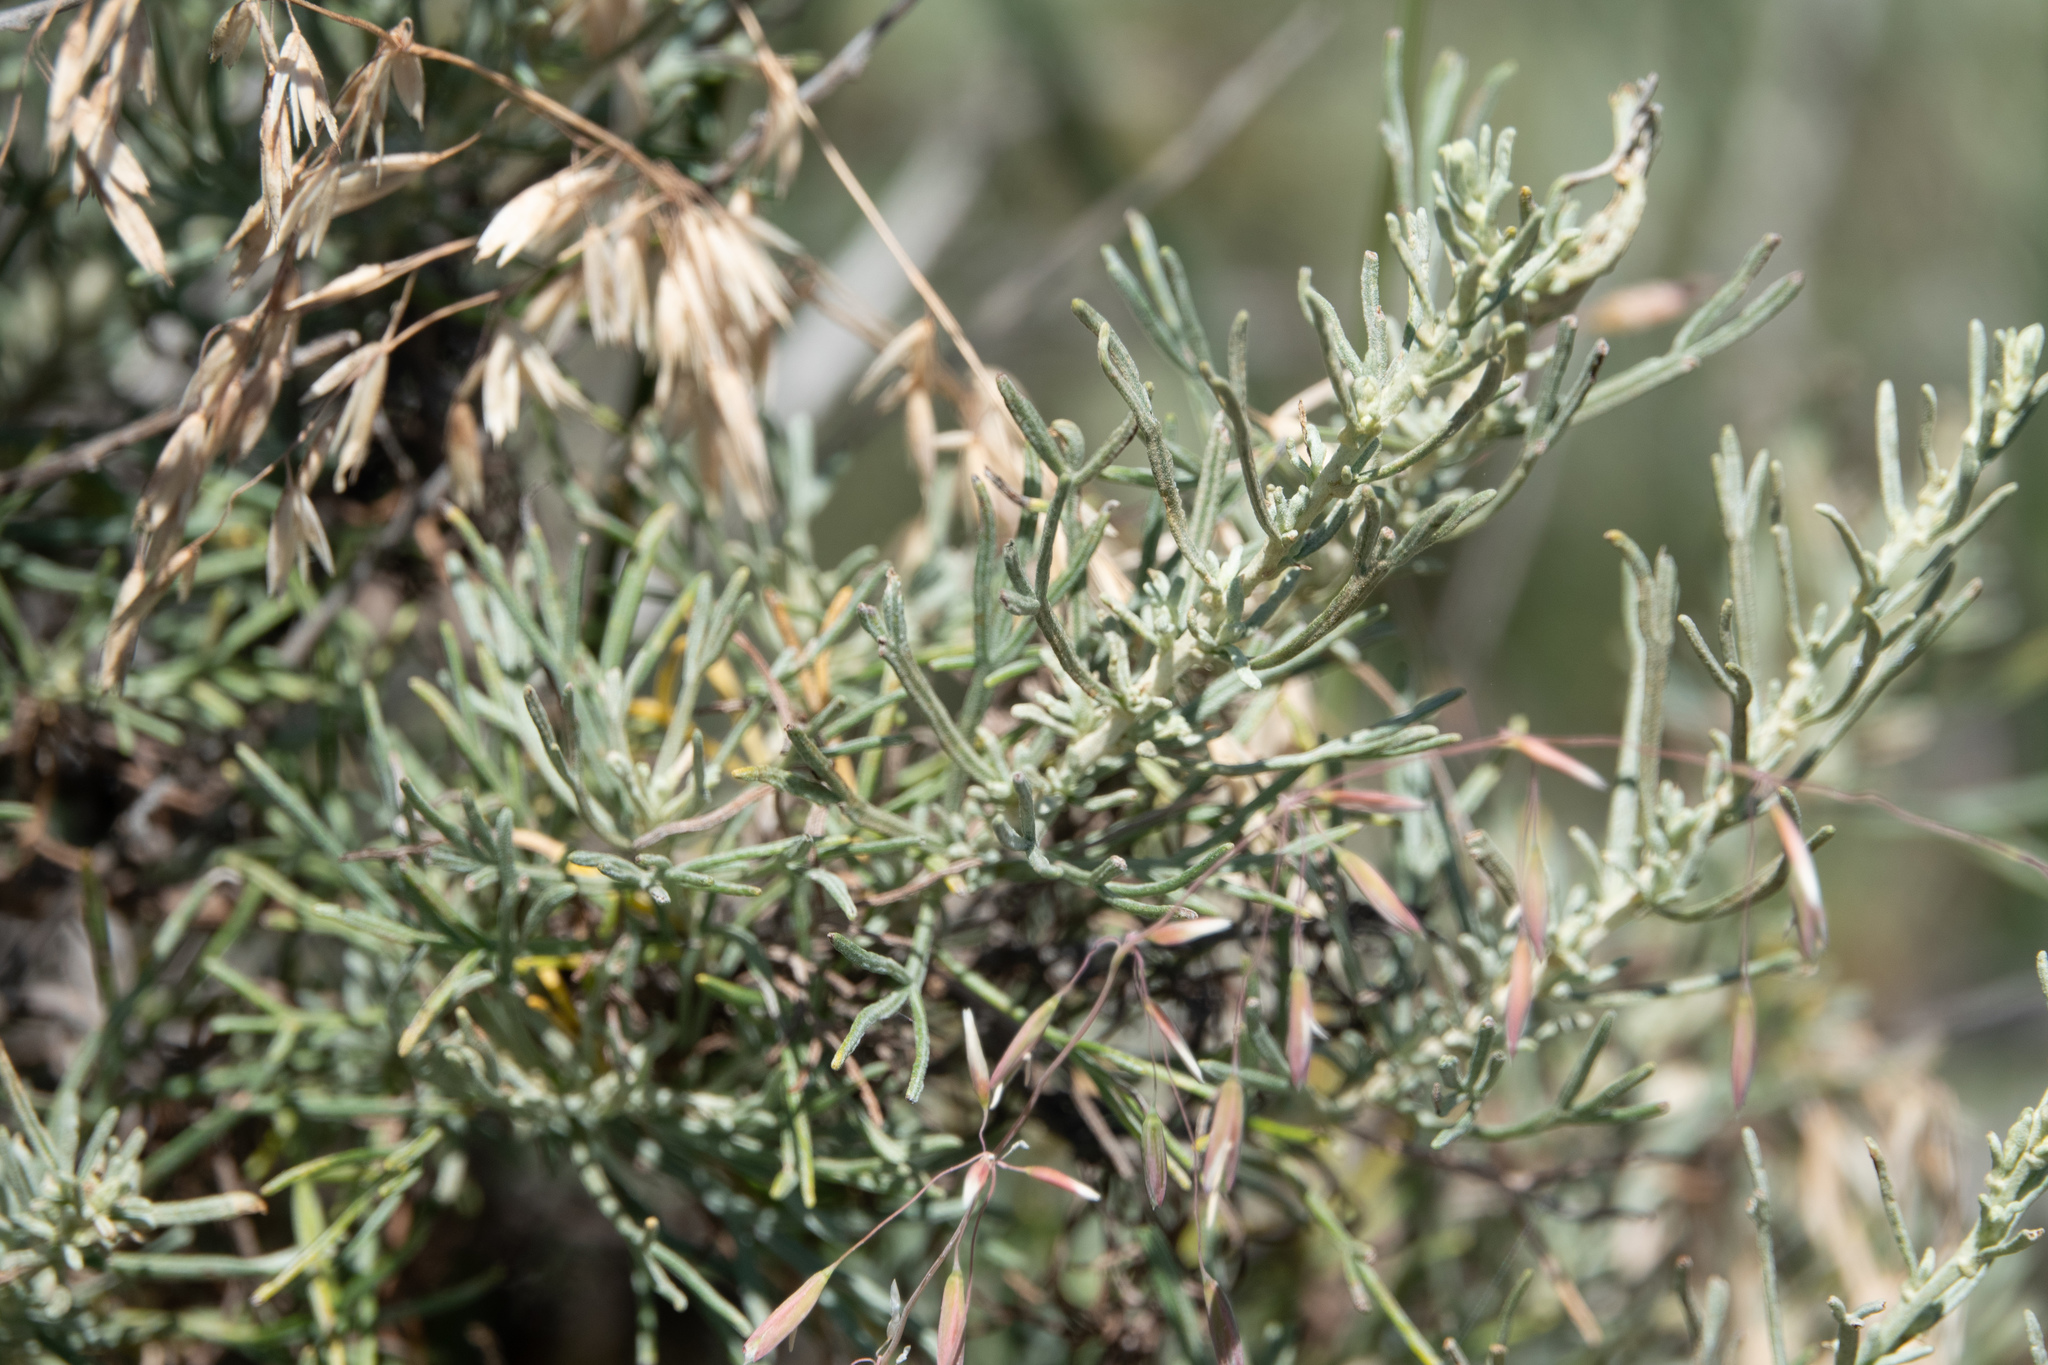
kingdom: Plantae
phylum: Tracheophyta
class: Magnoliopsida
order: Asterales
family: Asteraceae
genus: Artemisia
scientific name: Artemisia californica
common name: California sagebrush
